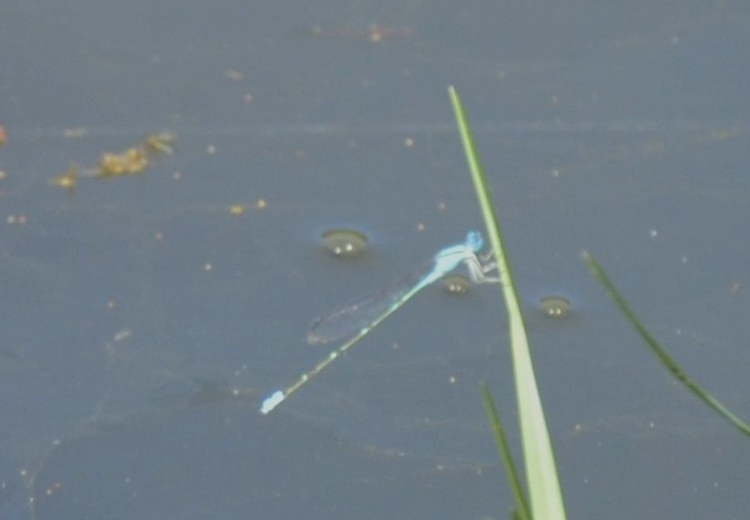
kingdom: Animalia
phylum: Arthropoda
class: Insecta
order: Odonata
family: Coenagrionidae
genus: Pseudagrion
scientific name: Pseudagrion microcephalum
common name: Blue riverdamsel
